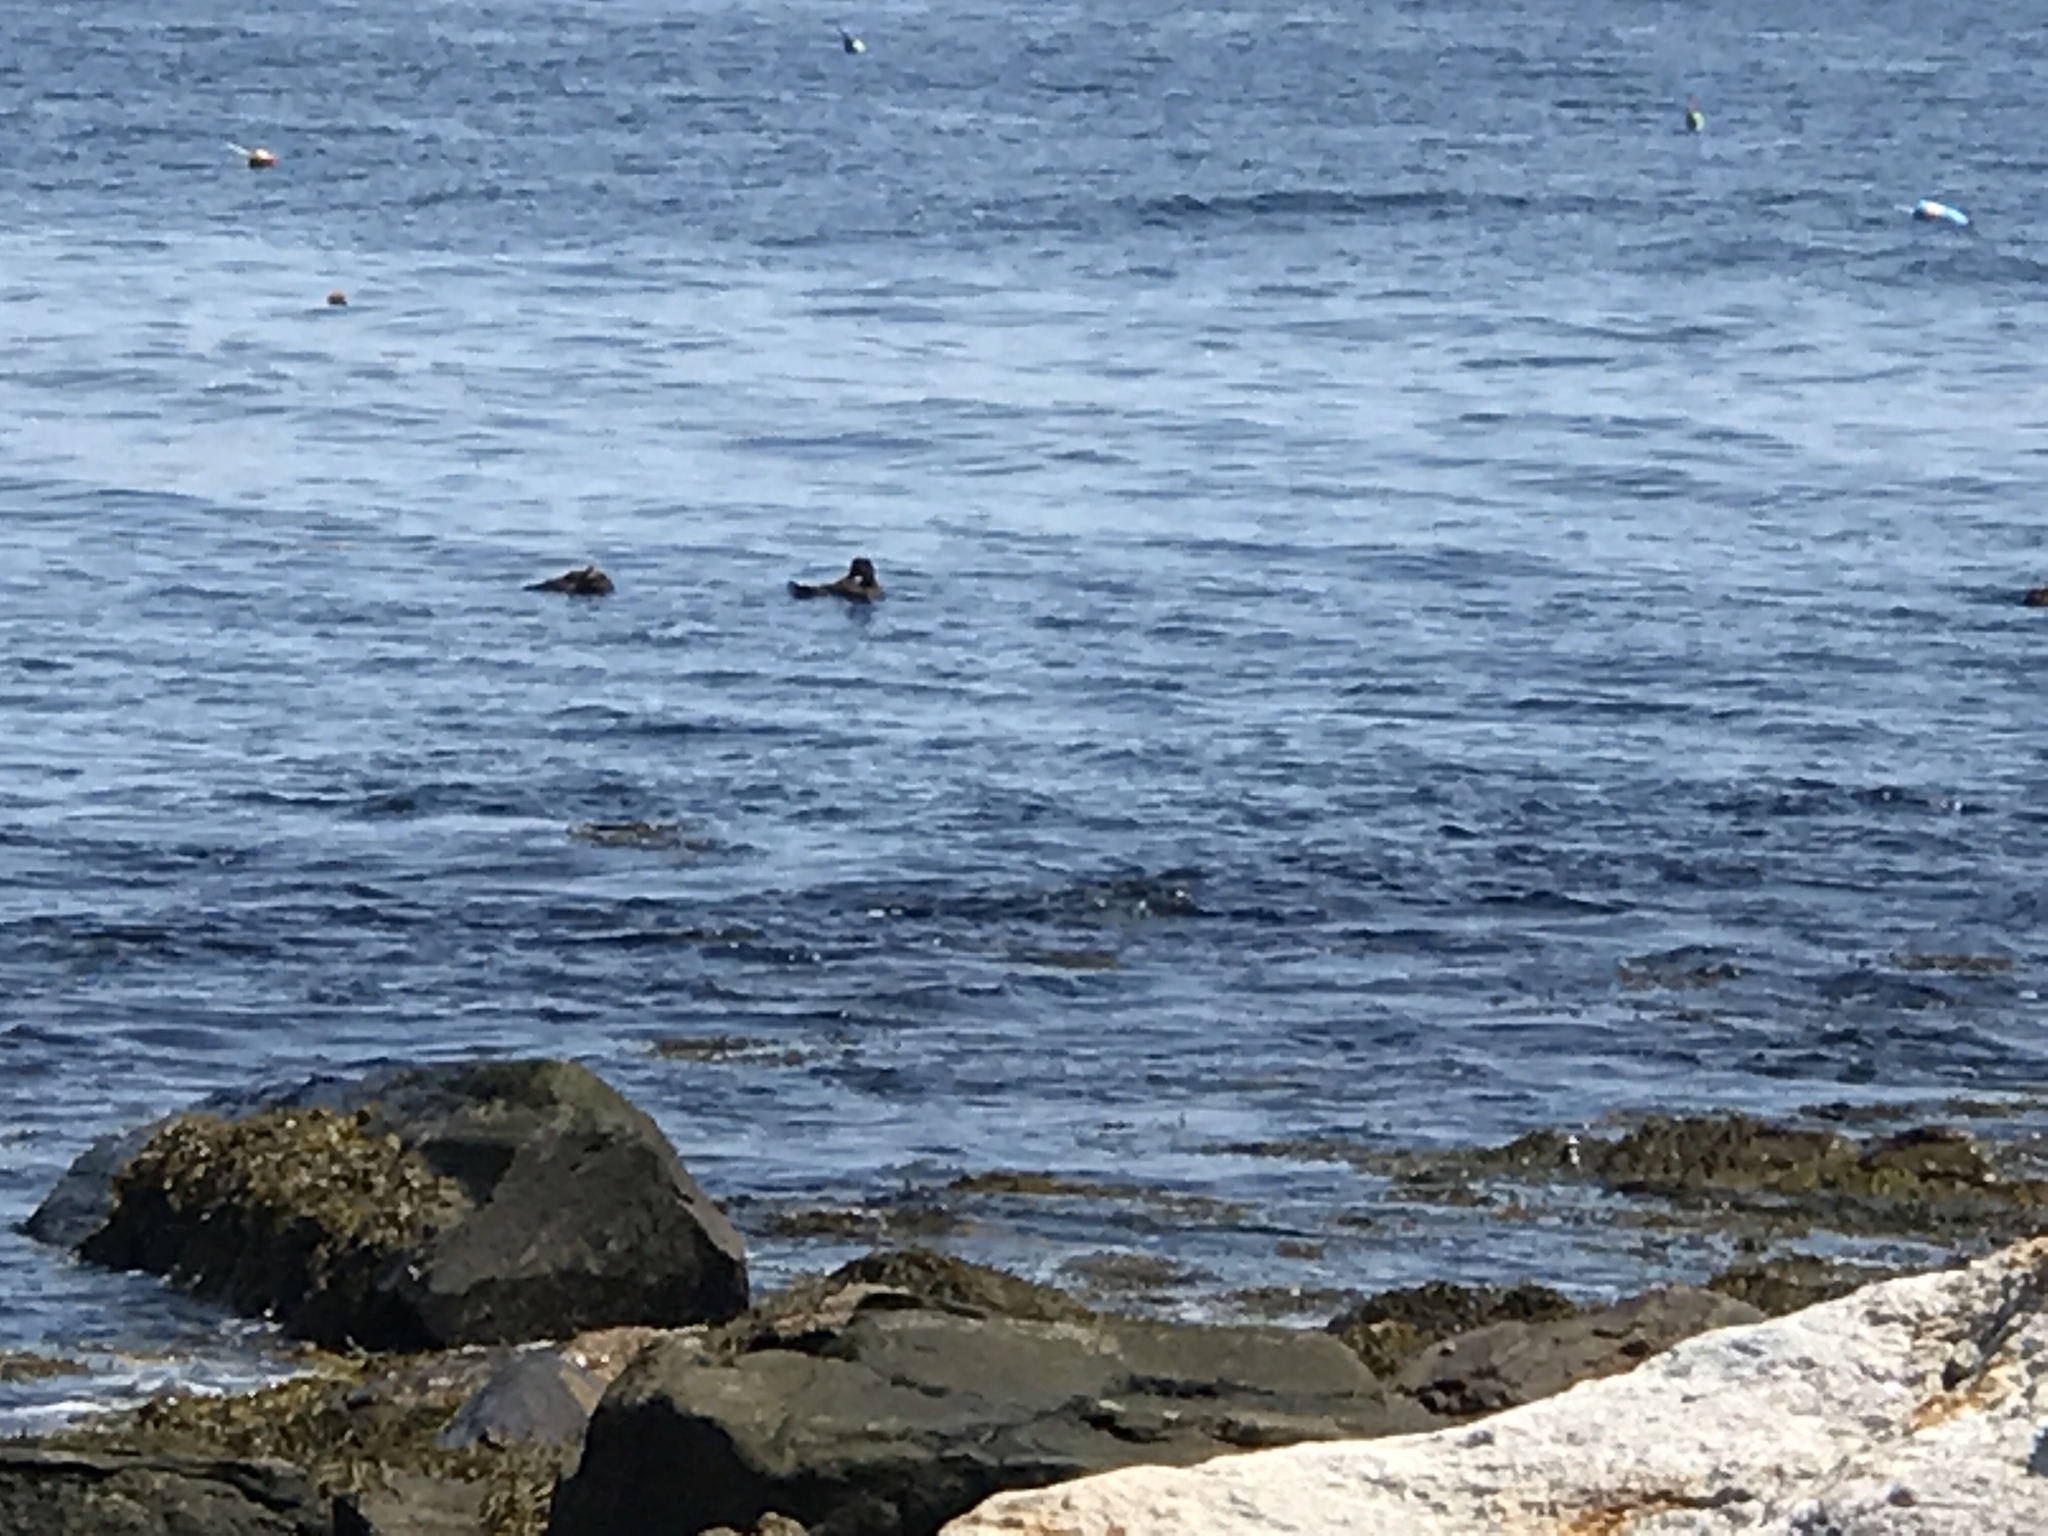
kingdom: Animalia
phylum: Chordata
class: Aves
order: Anseriformes
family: Anatidae
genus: Somateria
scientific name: Somateria mollissima
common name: Common eider
